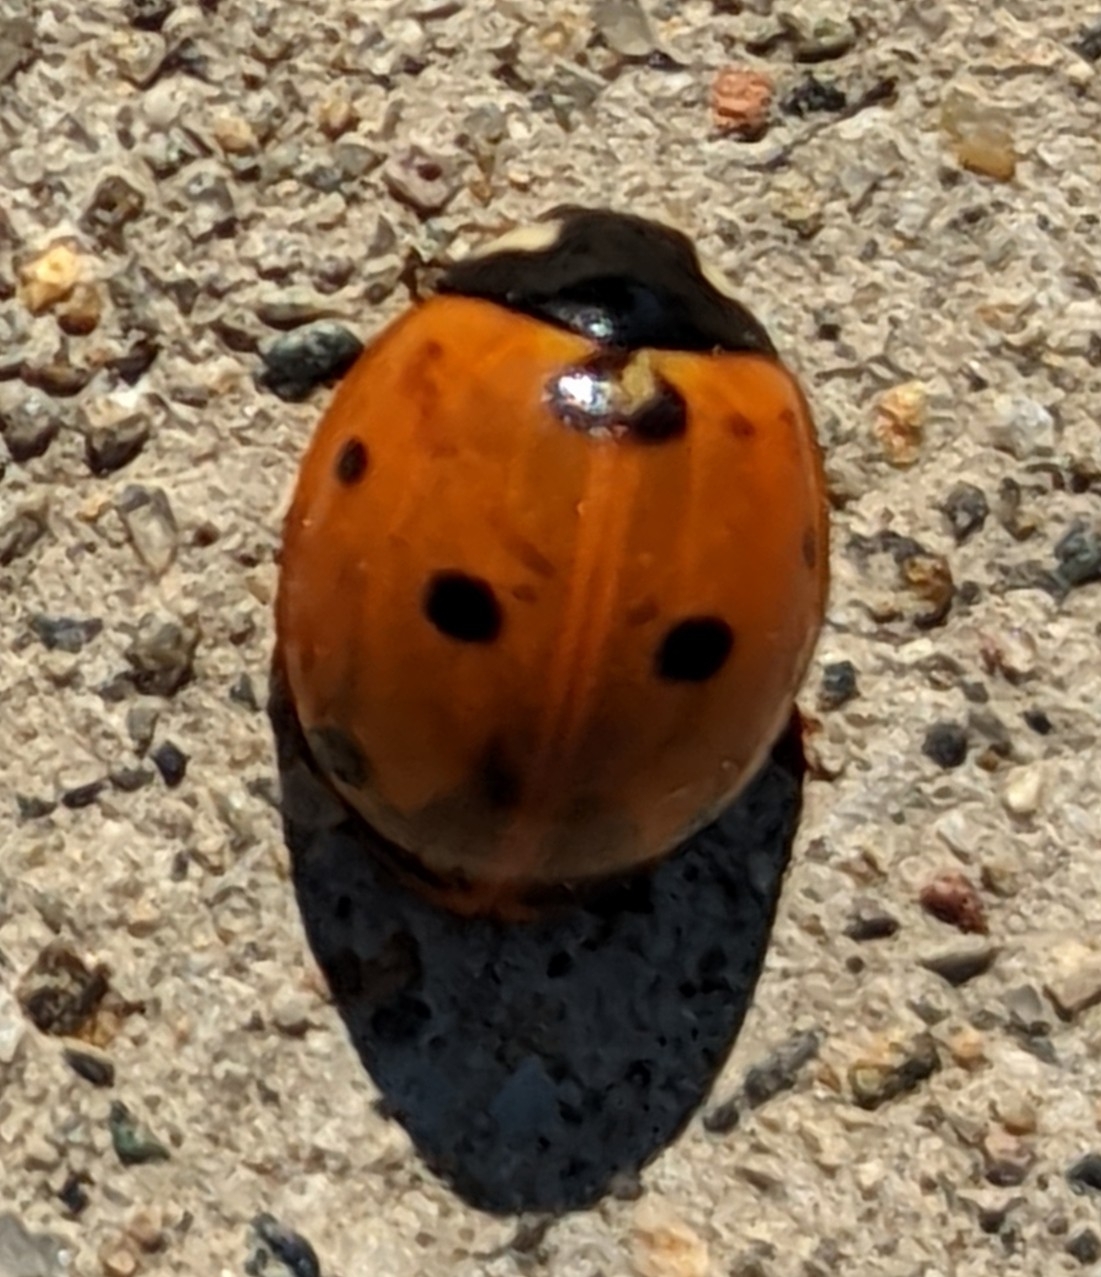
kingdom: Animalia
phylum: Arthropoda
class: Insecta
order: Coleoptera
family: Coccinellidae
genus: Coccinella
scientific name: Coccinella septempunctata
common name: Sevenspotted lady beetle
